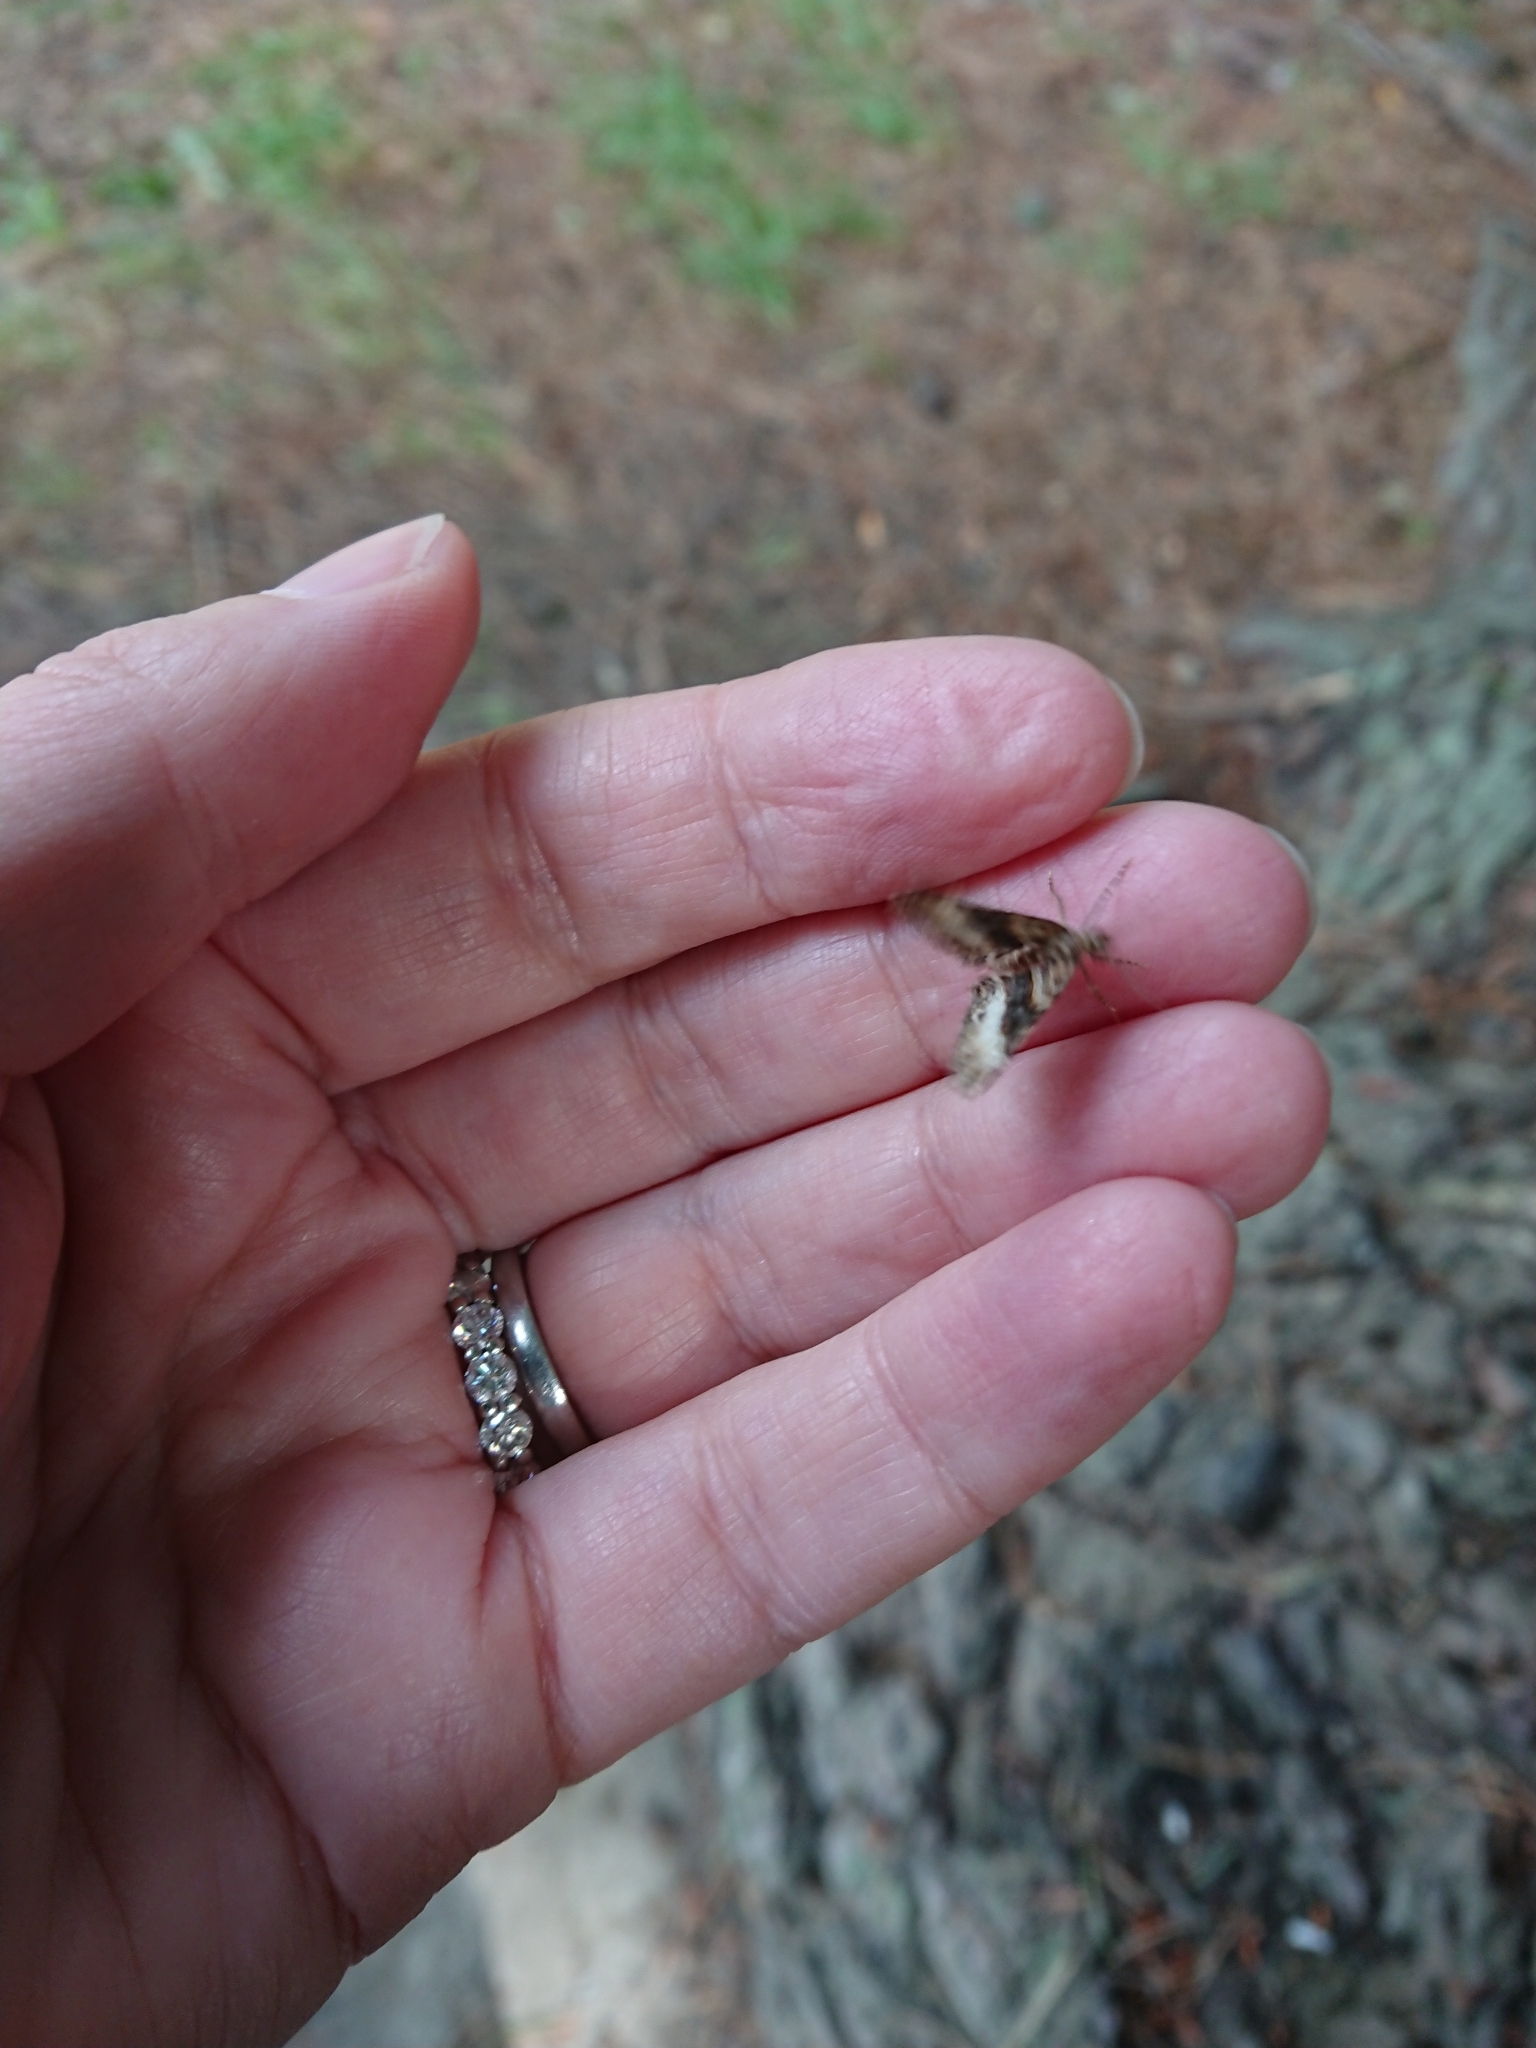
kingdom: Animalia
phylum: Arthropoda
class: Insecta
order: Lepidoptera
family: Geometridae
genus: Epyaxa
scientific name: Epyaxa lucidata
